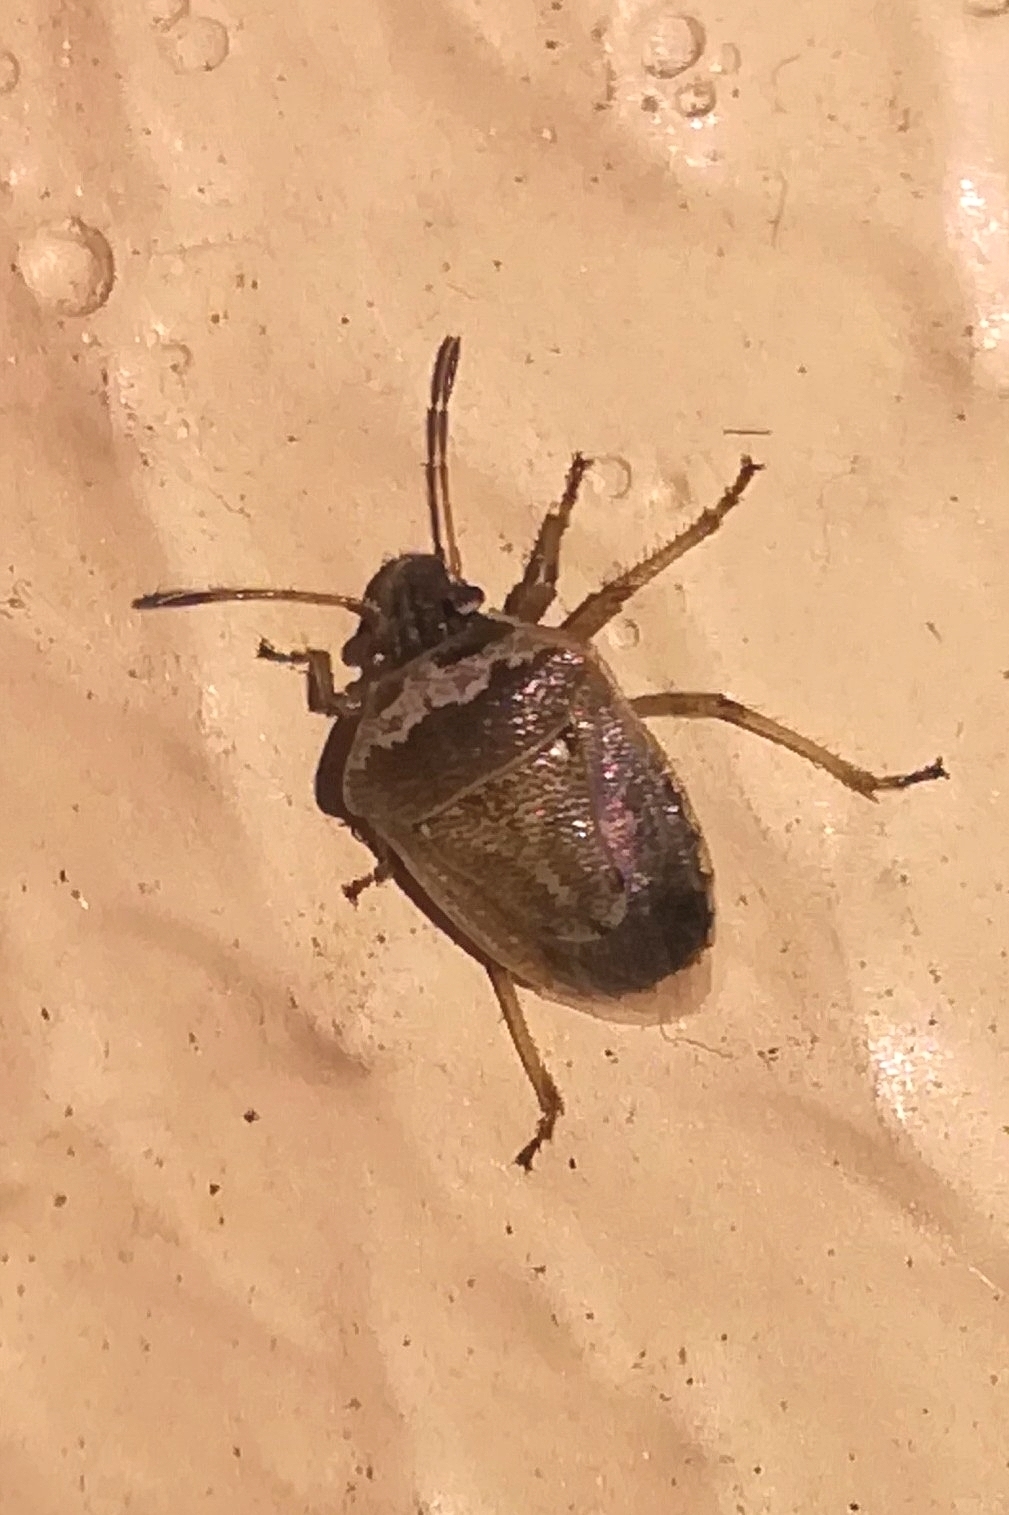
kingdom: Animalia
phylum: Arthropoda
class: Insecta
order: Hemiptera
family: Pentatomidae
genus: Eysarcoris
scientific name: Eysarcoris ventralis
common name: White-spotted stink bug
